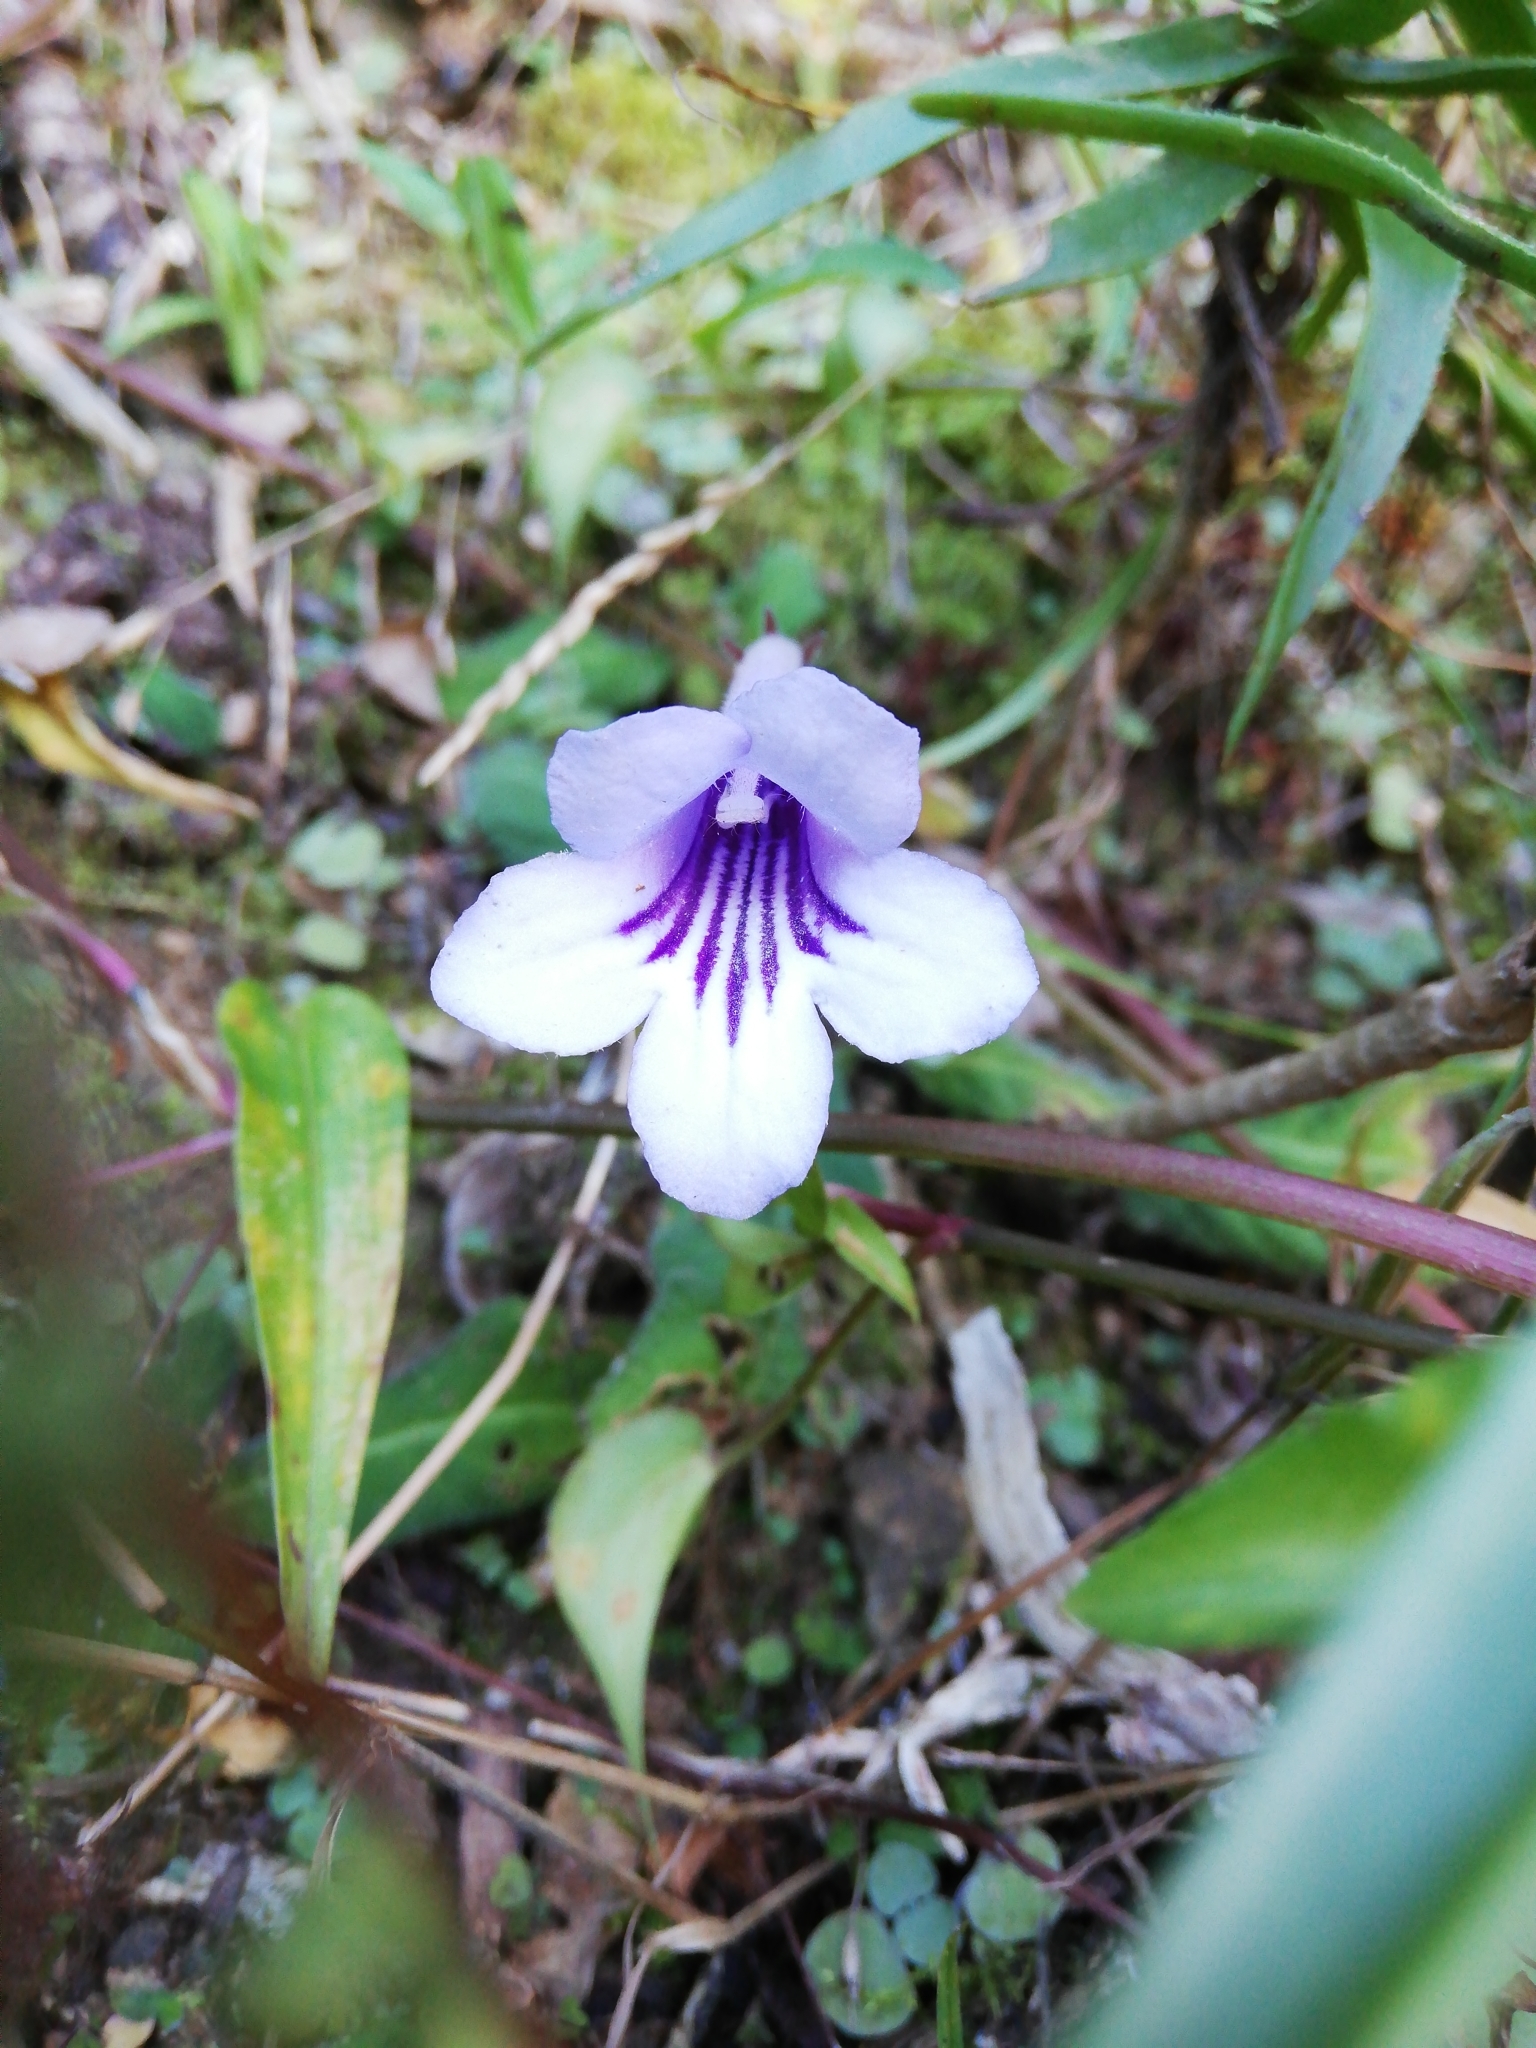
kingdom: Plantae
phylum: Tracheophyta
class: Magnoliopsida
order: Lamiales
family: Gesneriaceae
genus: Streptocarpus
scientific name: Streptocarpus rexii
